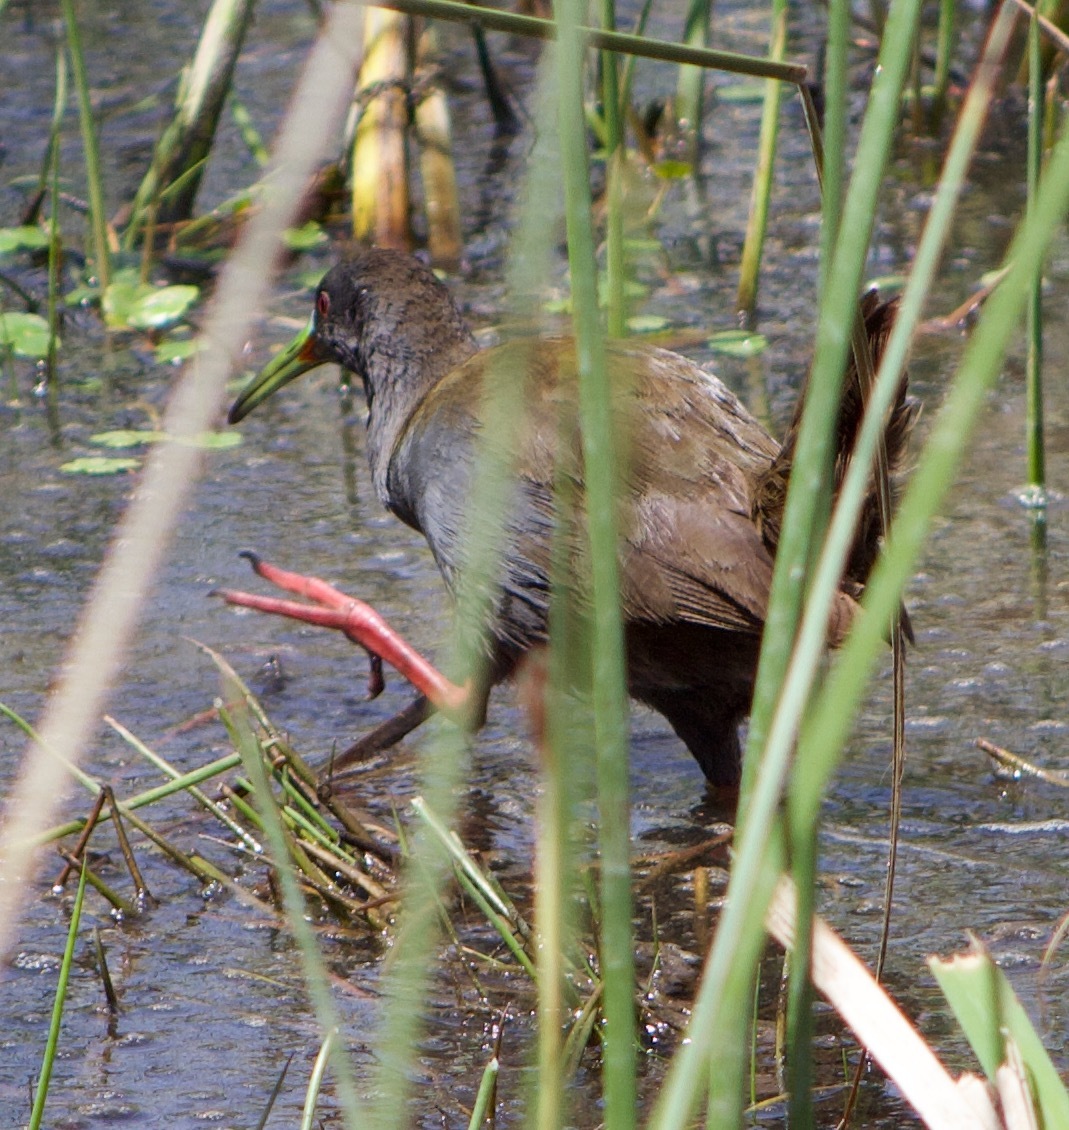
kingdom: Animalia
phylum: Chordata
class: Aves
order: Gruiformes
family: Rallidae
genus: Pardirallus
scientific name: Pardirallus sanguinolentus
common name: Plumbeous rail
